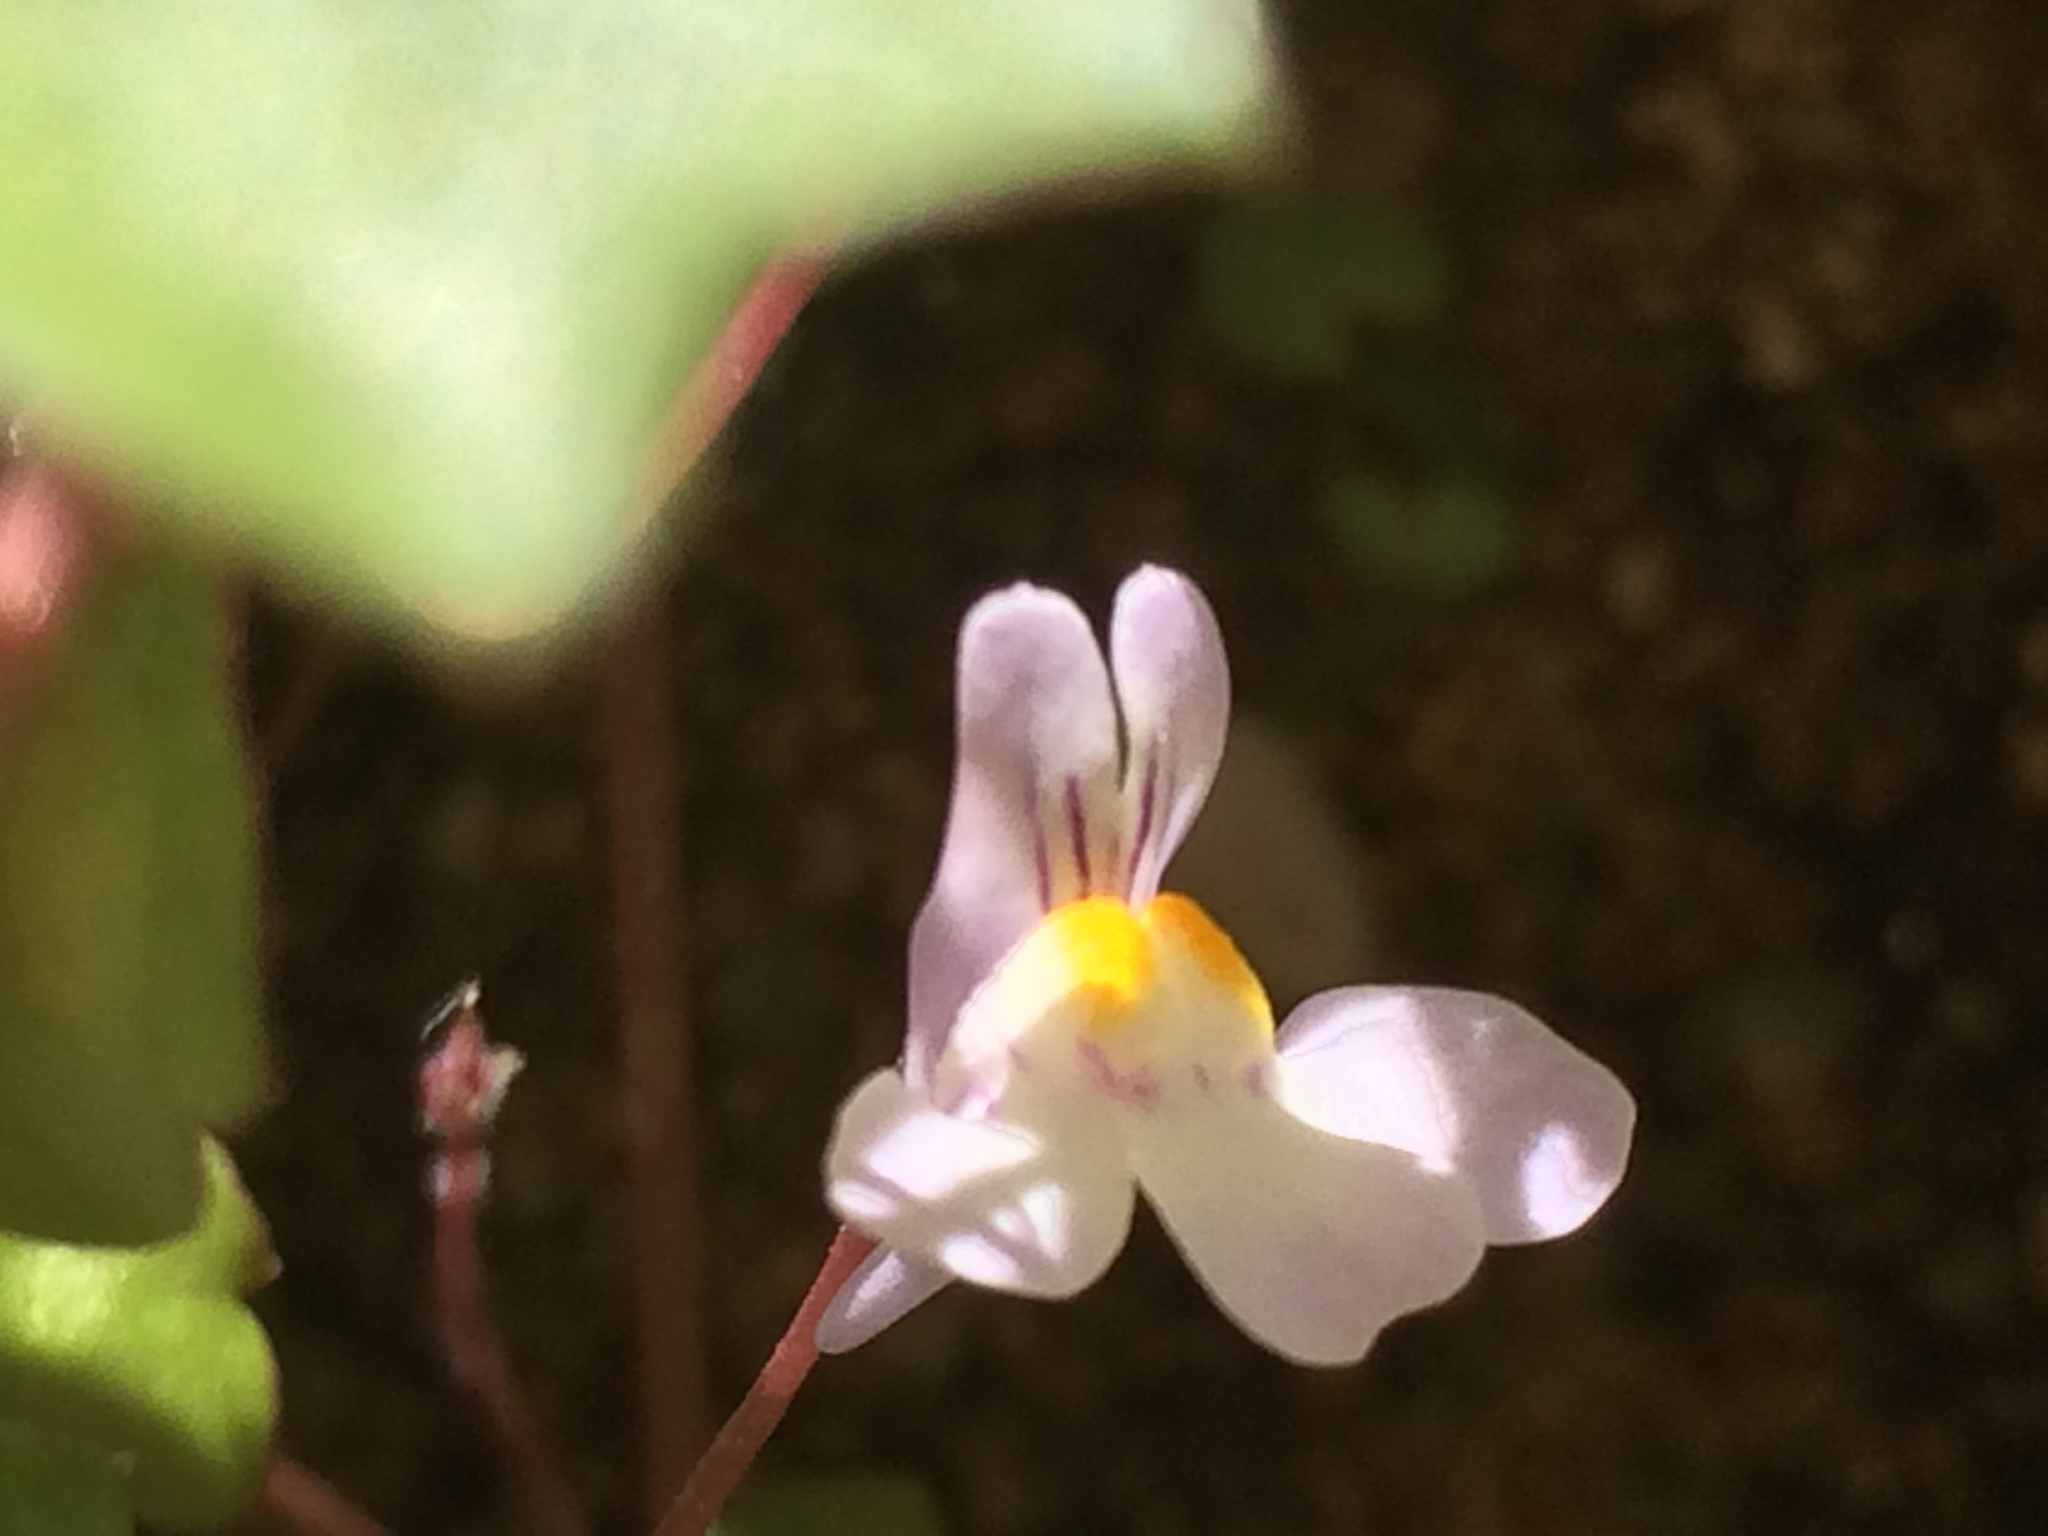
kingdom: Plantae
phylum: Tracheophyta
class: Magnoliopsida
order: Lamiales
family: Plantaginaceae
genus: Cymbalaria
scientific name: Cymbalaria muralis
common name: Ivy-leaved toadflax
